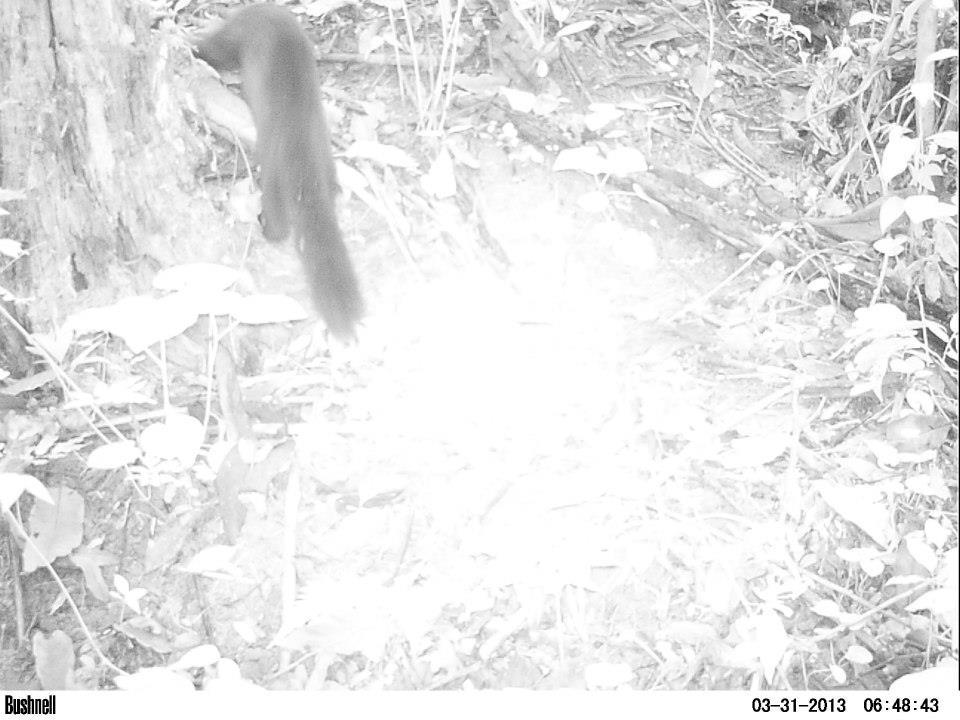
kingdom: Animalia
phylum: Chordata
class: Mammalia
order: Carnivora
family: Mustelidae
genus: Eira
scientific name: Eira barbara
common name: Tayra
